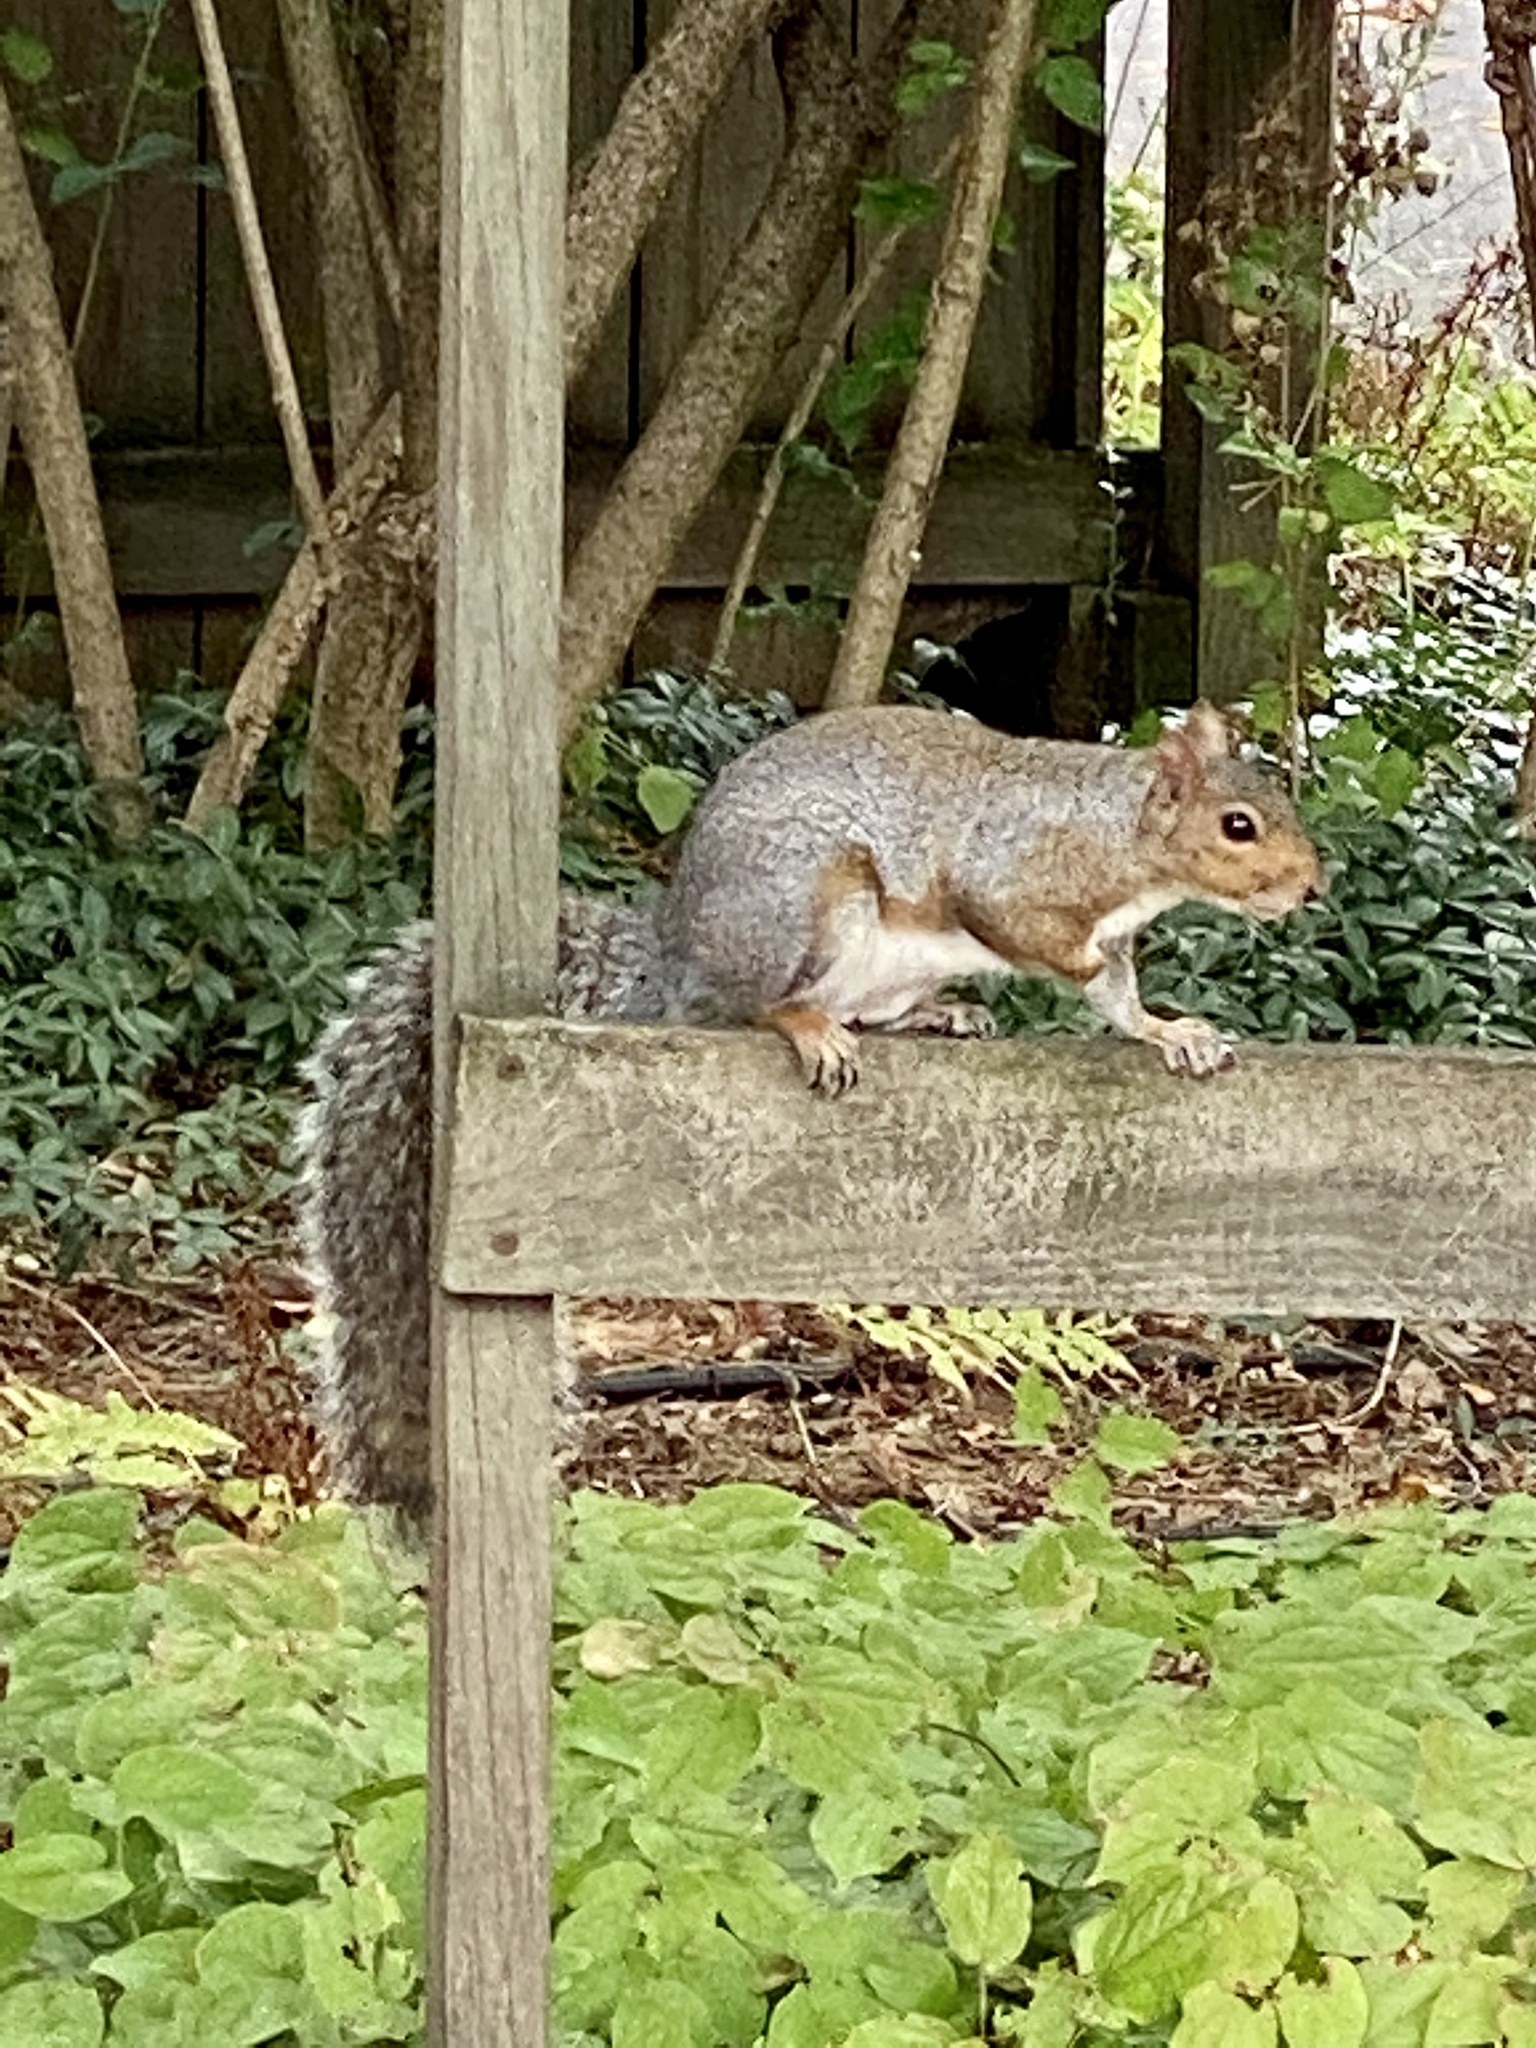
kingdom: Animalia
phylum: Chordata
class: Mammalia
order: Rodentia
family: Sciuridae
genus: Sciurus
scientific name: Sciurus carolinensis
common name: Eastern gray squirrel
